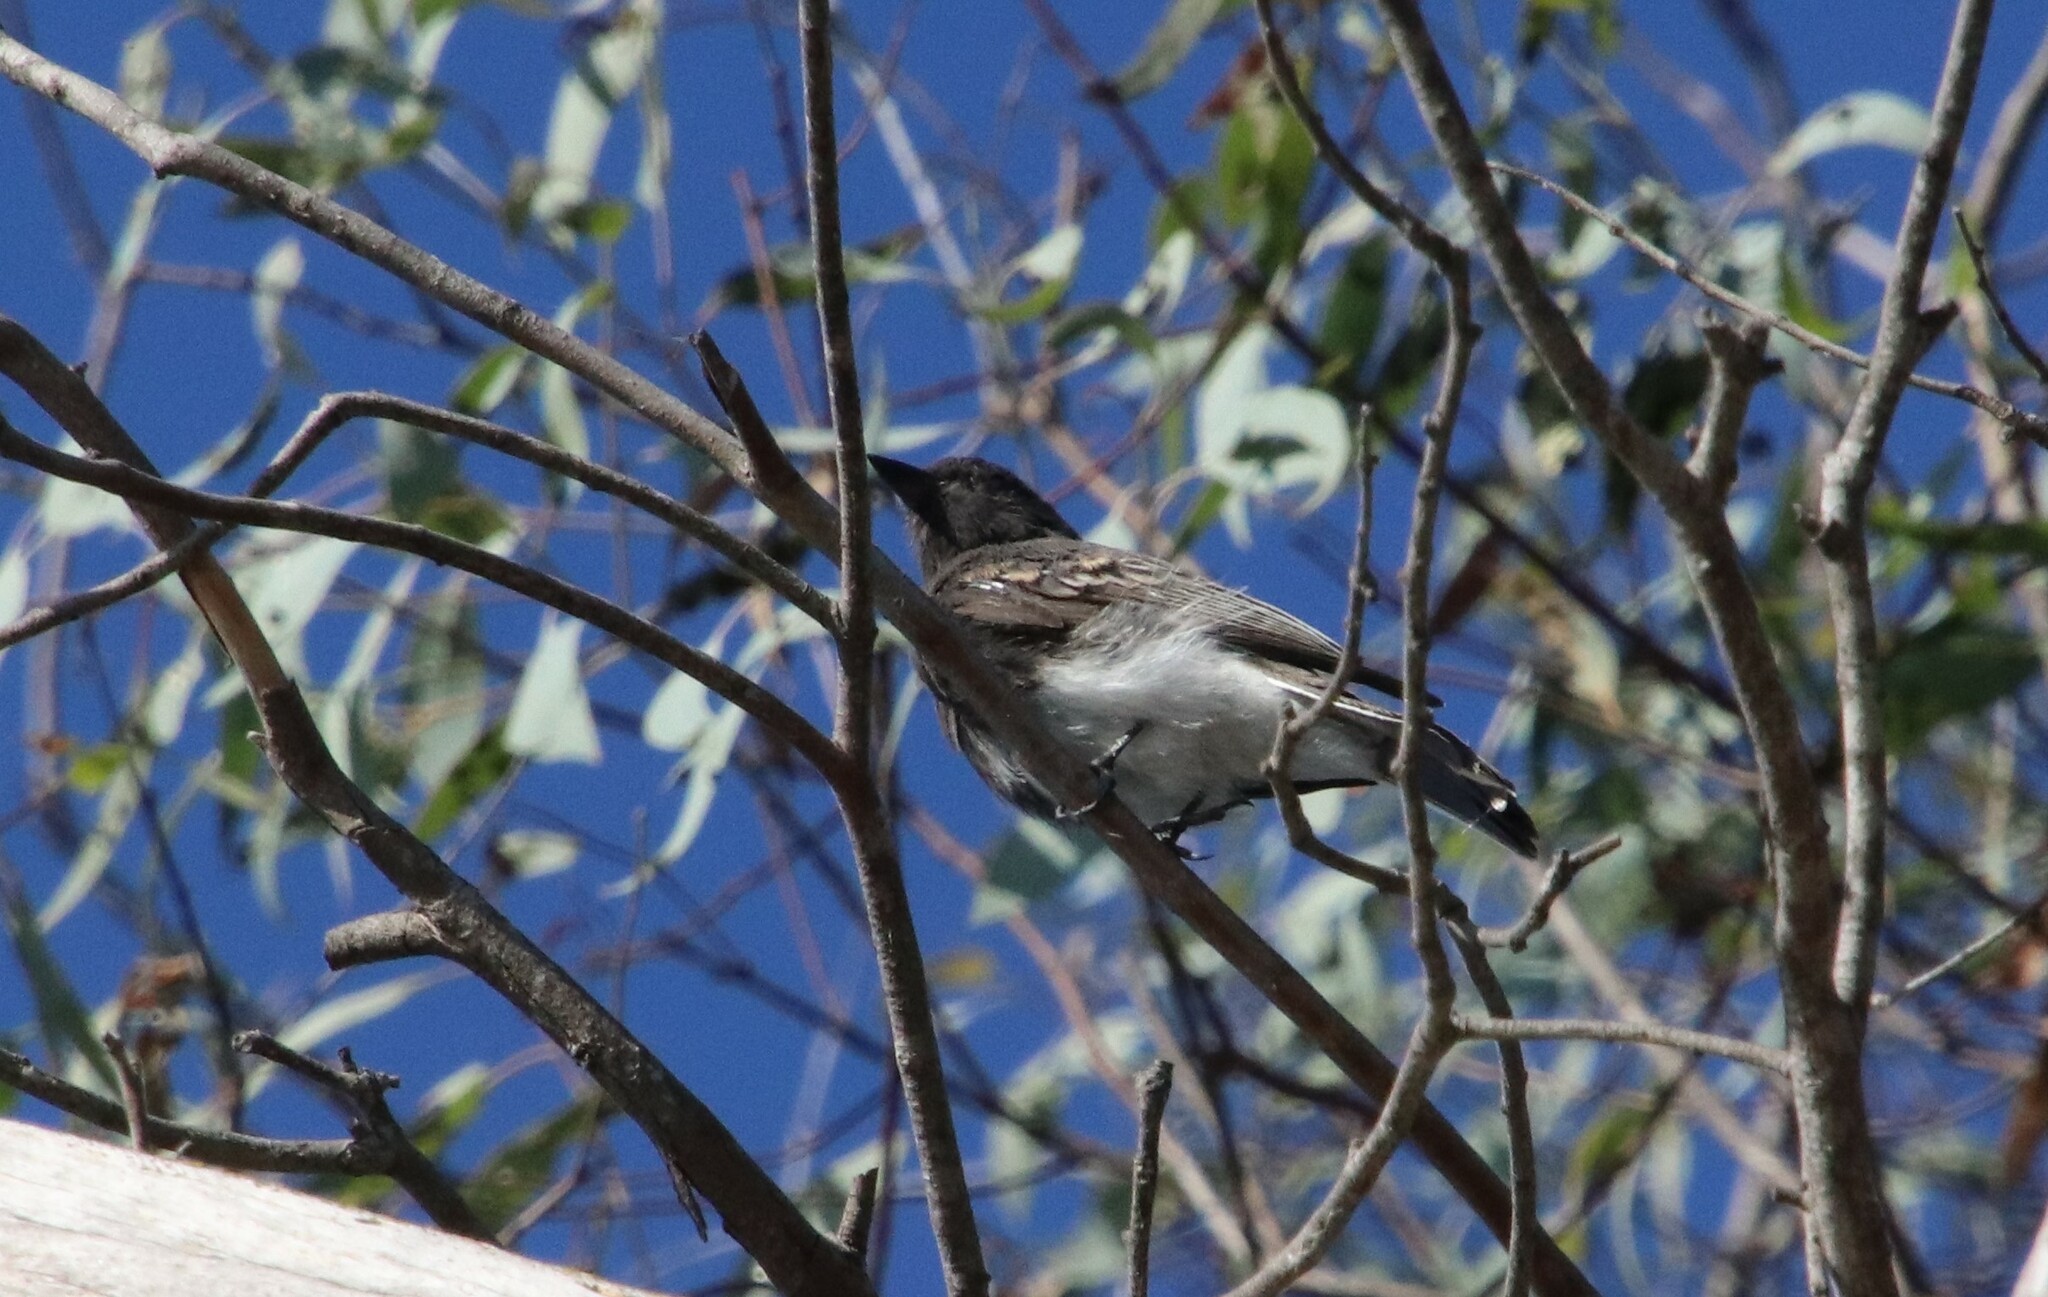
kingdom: Animalia
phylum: Chordata
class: Aves
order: Passeriformes
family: Tyrannidae
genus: Sayornis
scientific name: Sayornis nigricans
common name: Black phoebe
